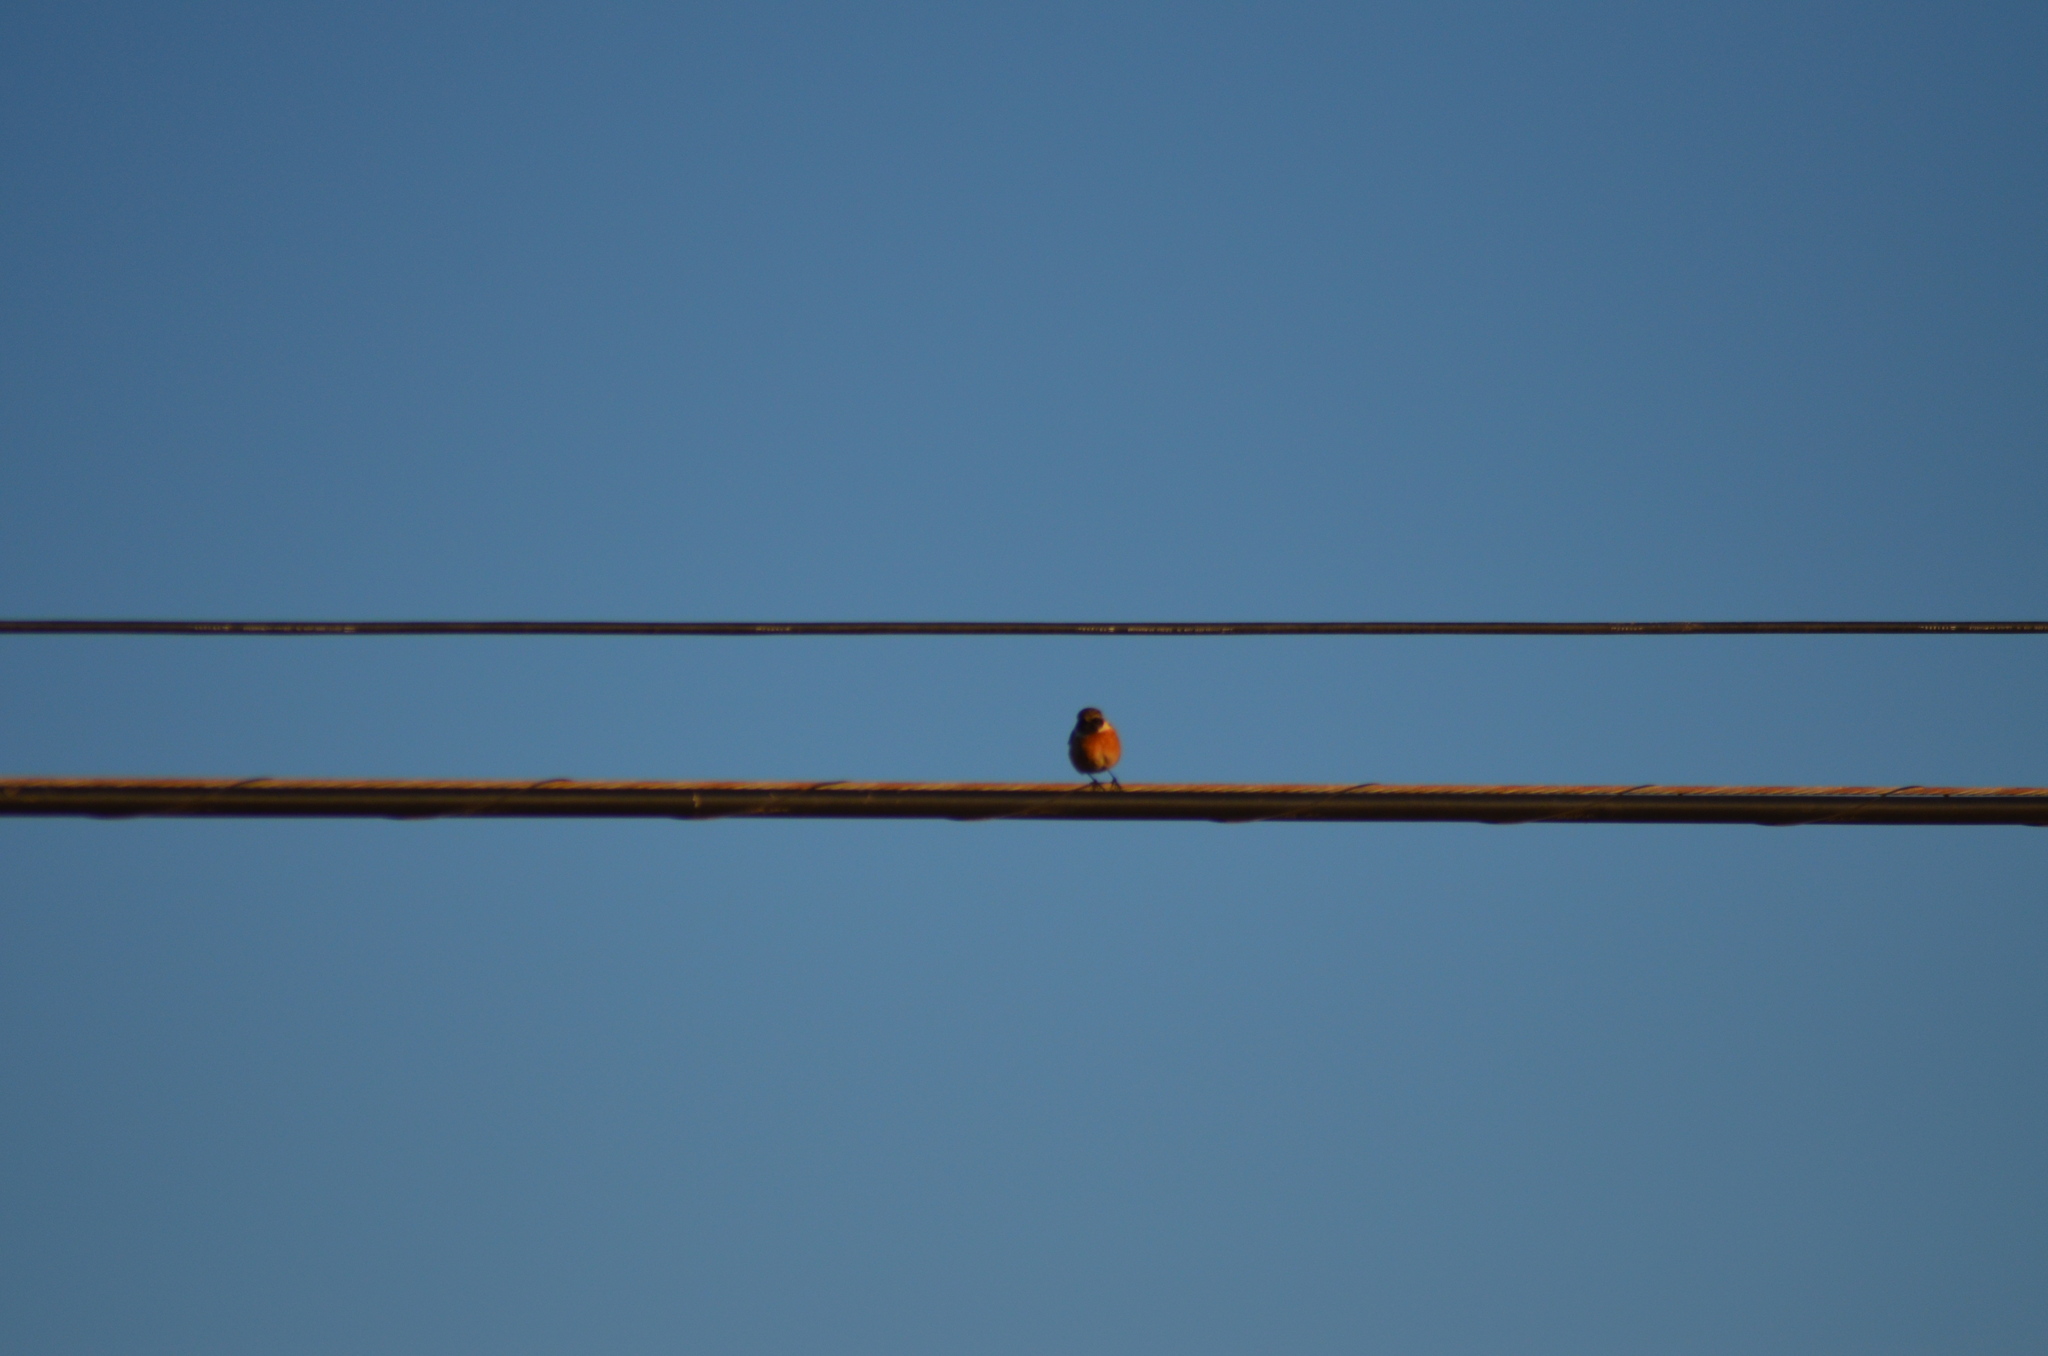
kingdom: Animalia
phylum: Chordata
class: Aves
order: Passeriformes
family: Muscicapidae
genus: Saxicola
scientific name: Saxicola rubicola
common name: European stonechat
